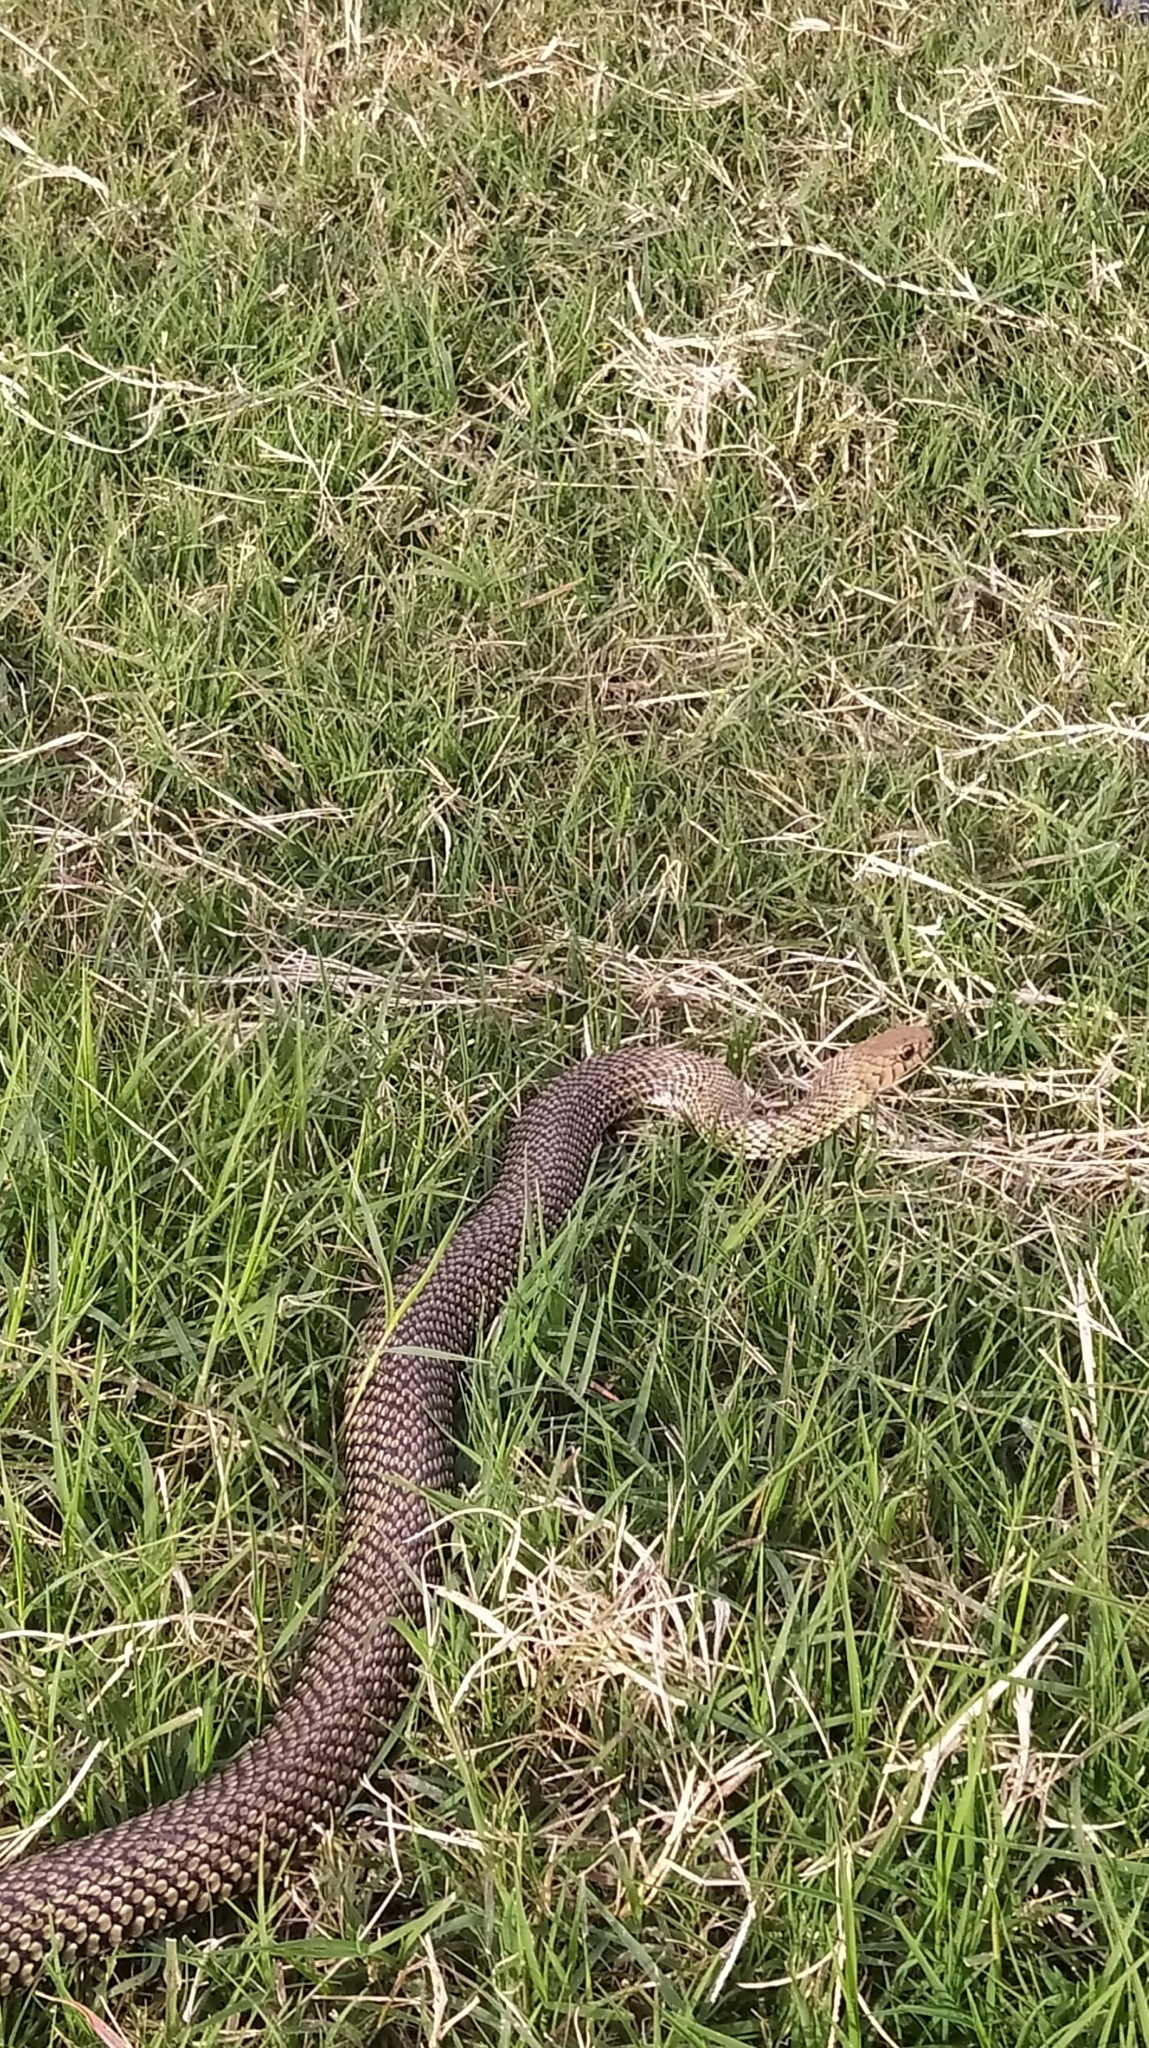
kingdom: Animalia
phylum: Chordata
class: Squamata
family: Colubridae
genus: Philodryas
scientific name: Philodryas patagoniensis
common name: Patagonia green racer
